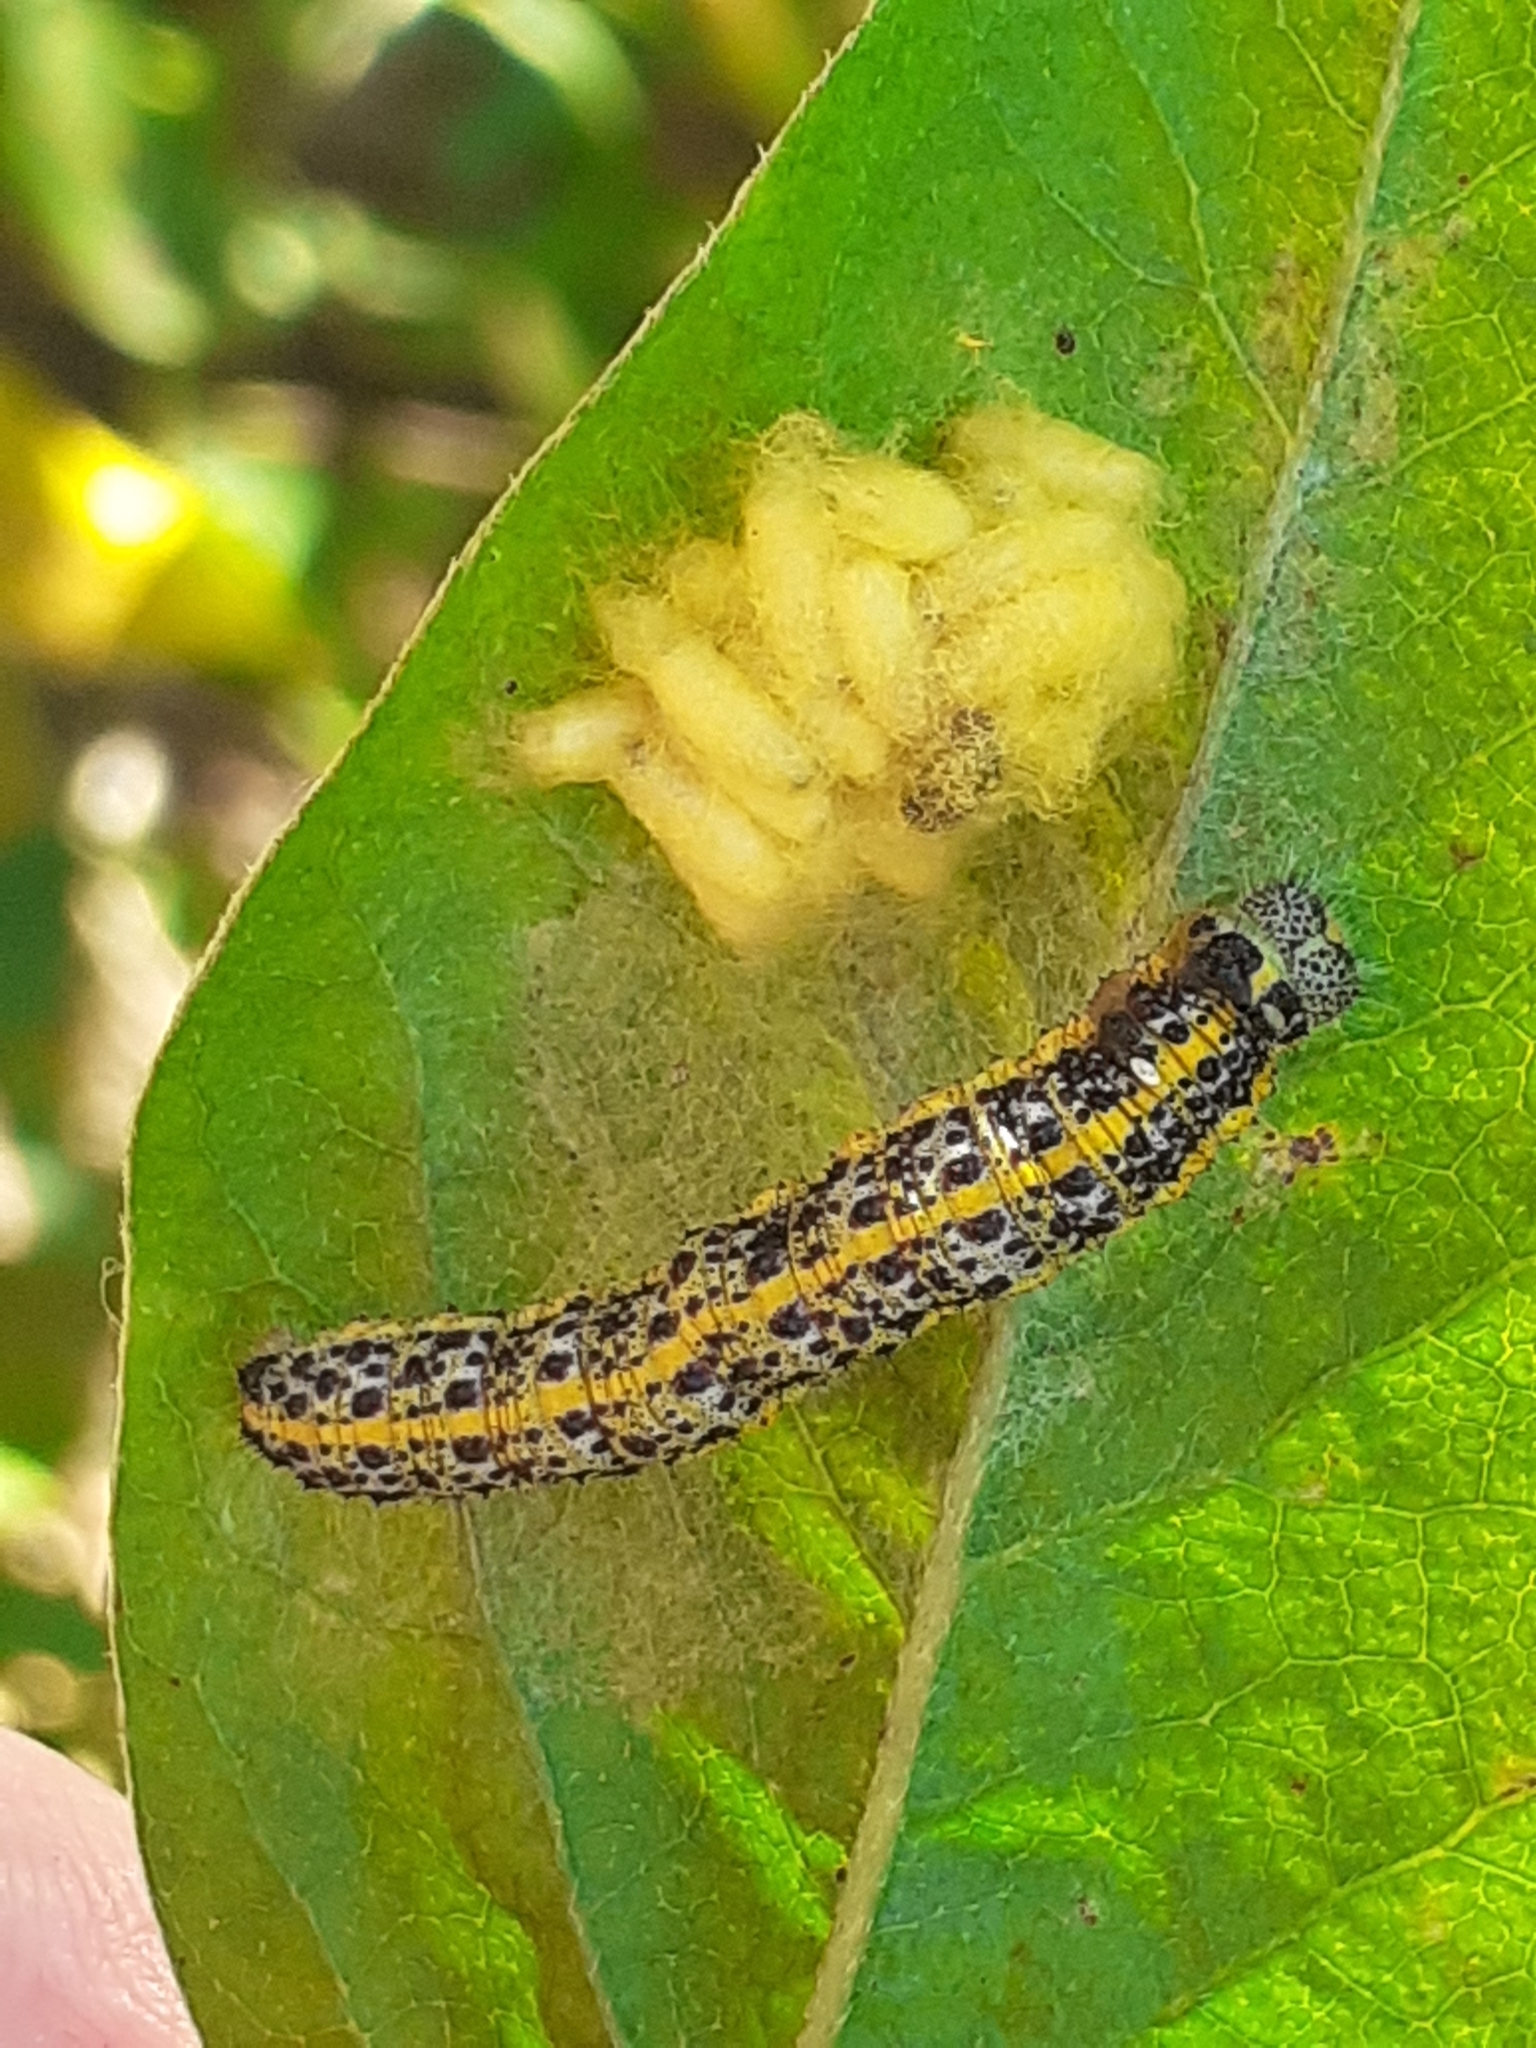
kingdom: Animalia
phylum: Arthropoda
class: Insecta
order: Lepidoptera
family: Pieridae
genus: Pieris
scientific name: Pieris cheiranthi
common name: Canary islands large white
